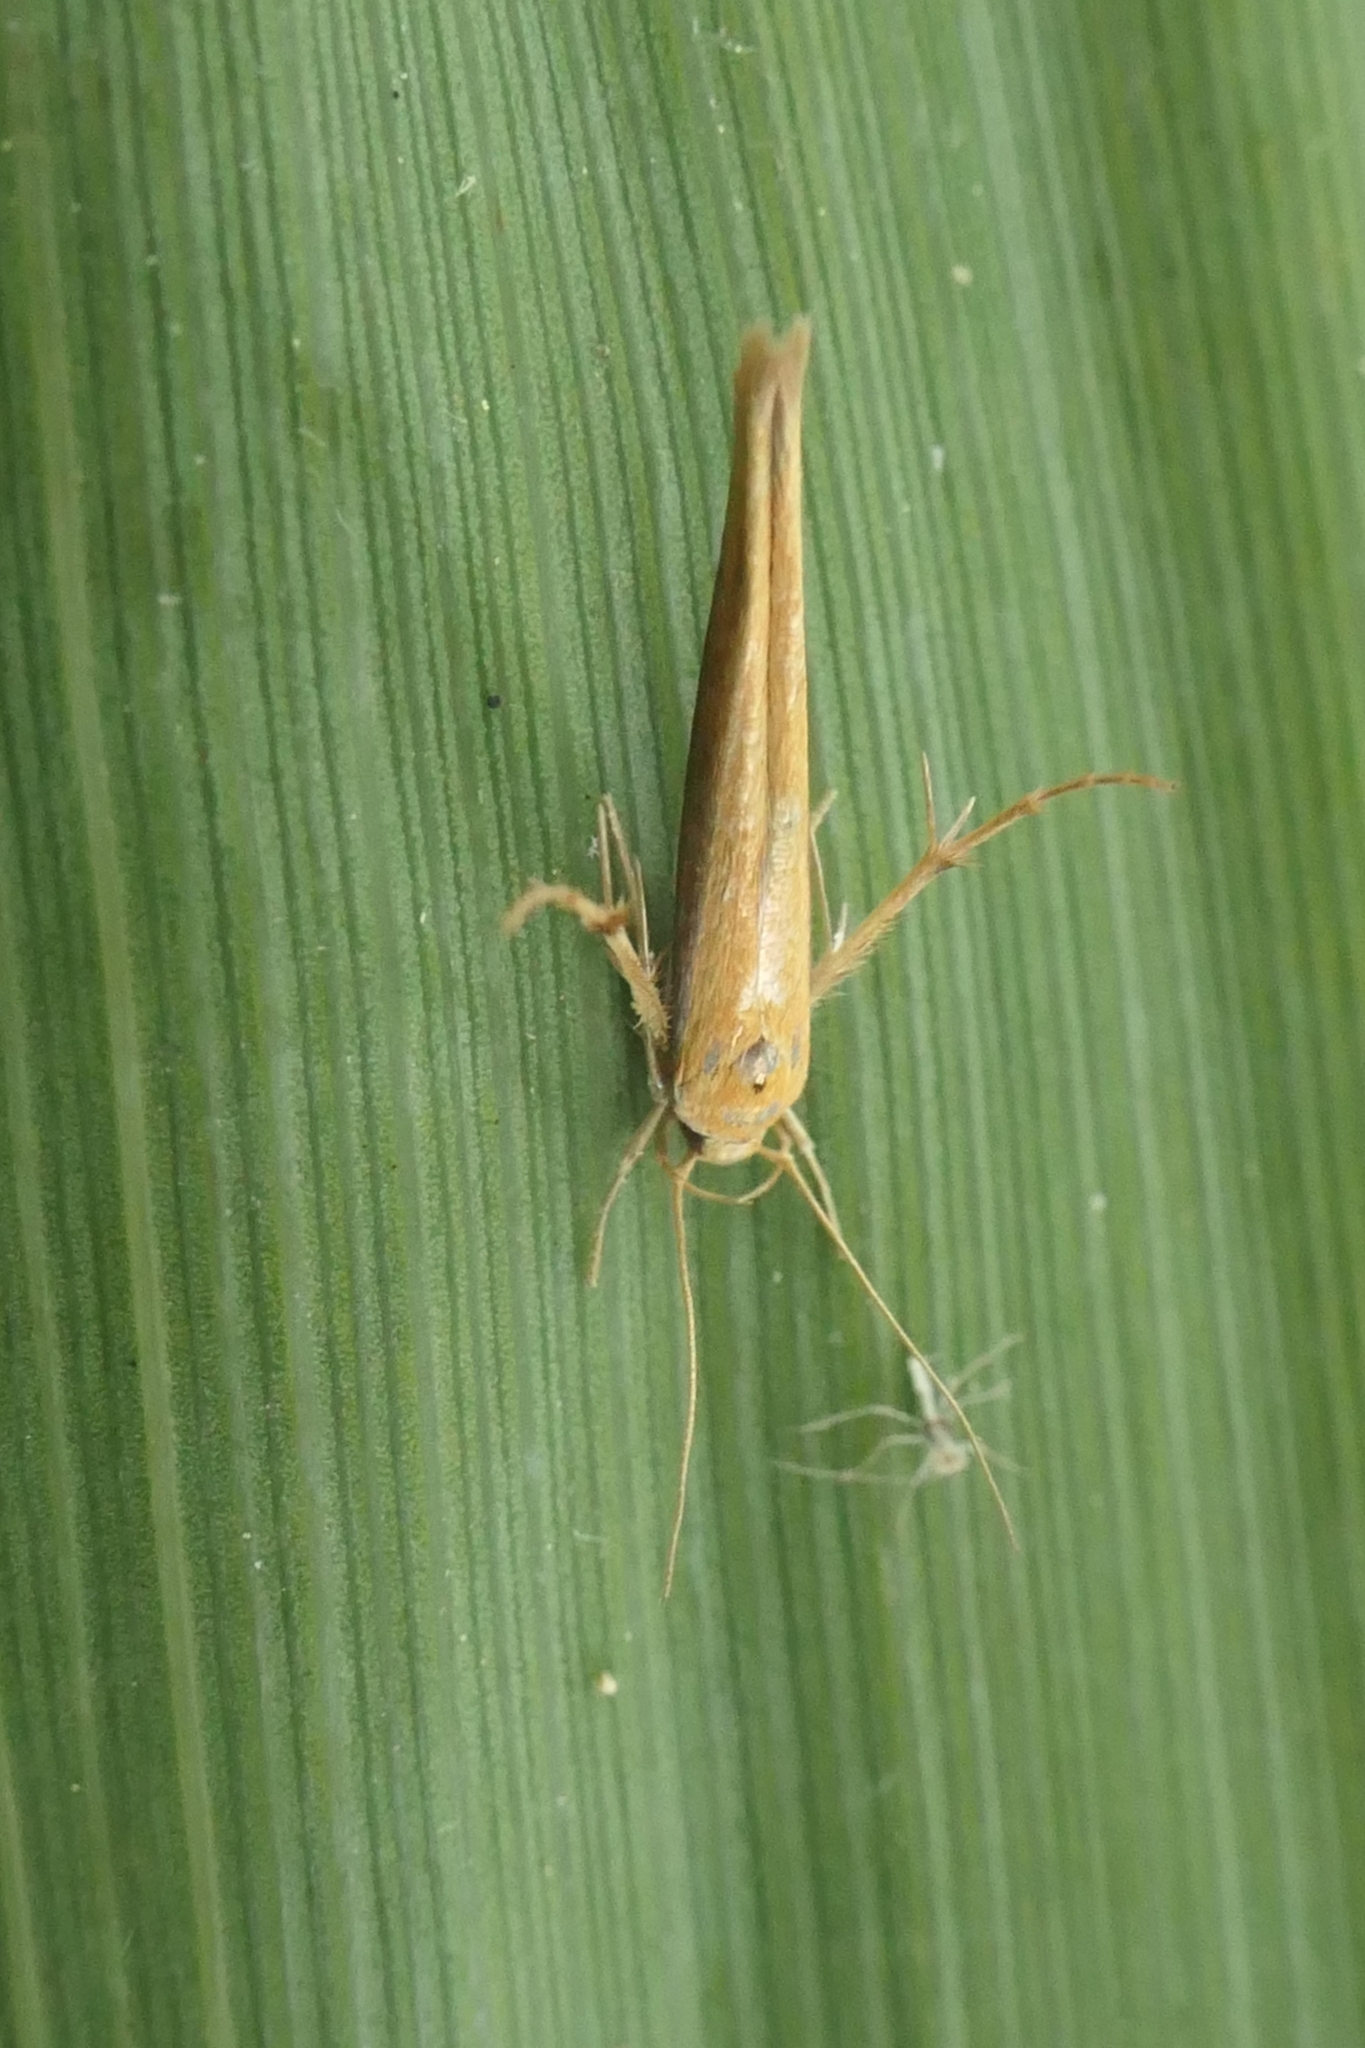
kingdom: Animalia
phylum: Arthropoda
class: Insecta
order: Lepidoptera
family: Stathmopodidae
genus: Stathmopoda
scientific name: Stathmopoda skelloni
